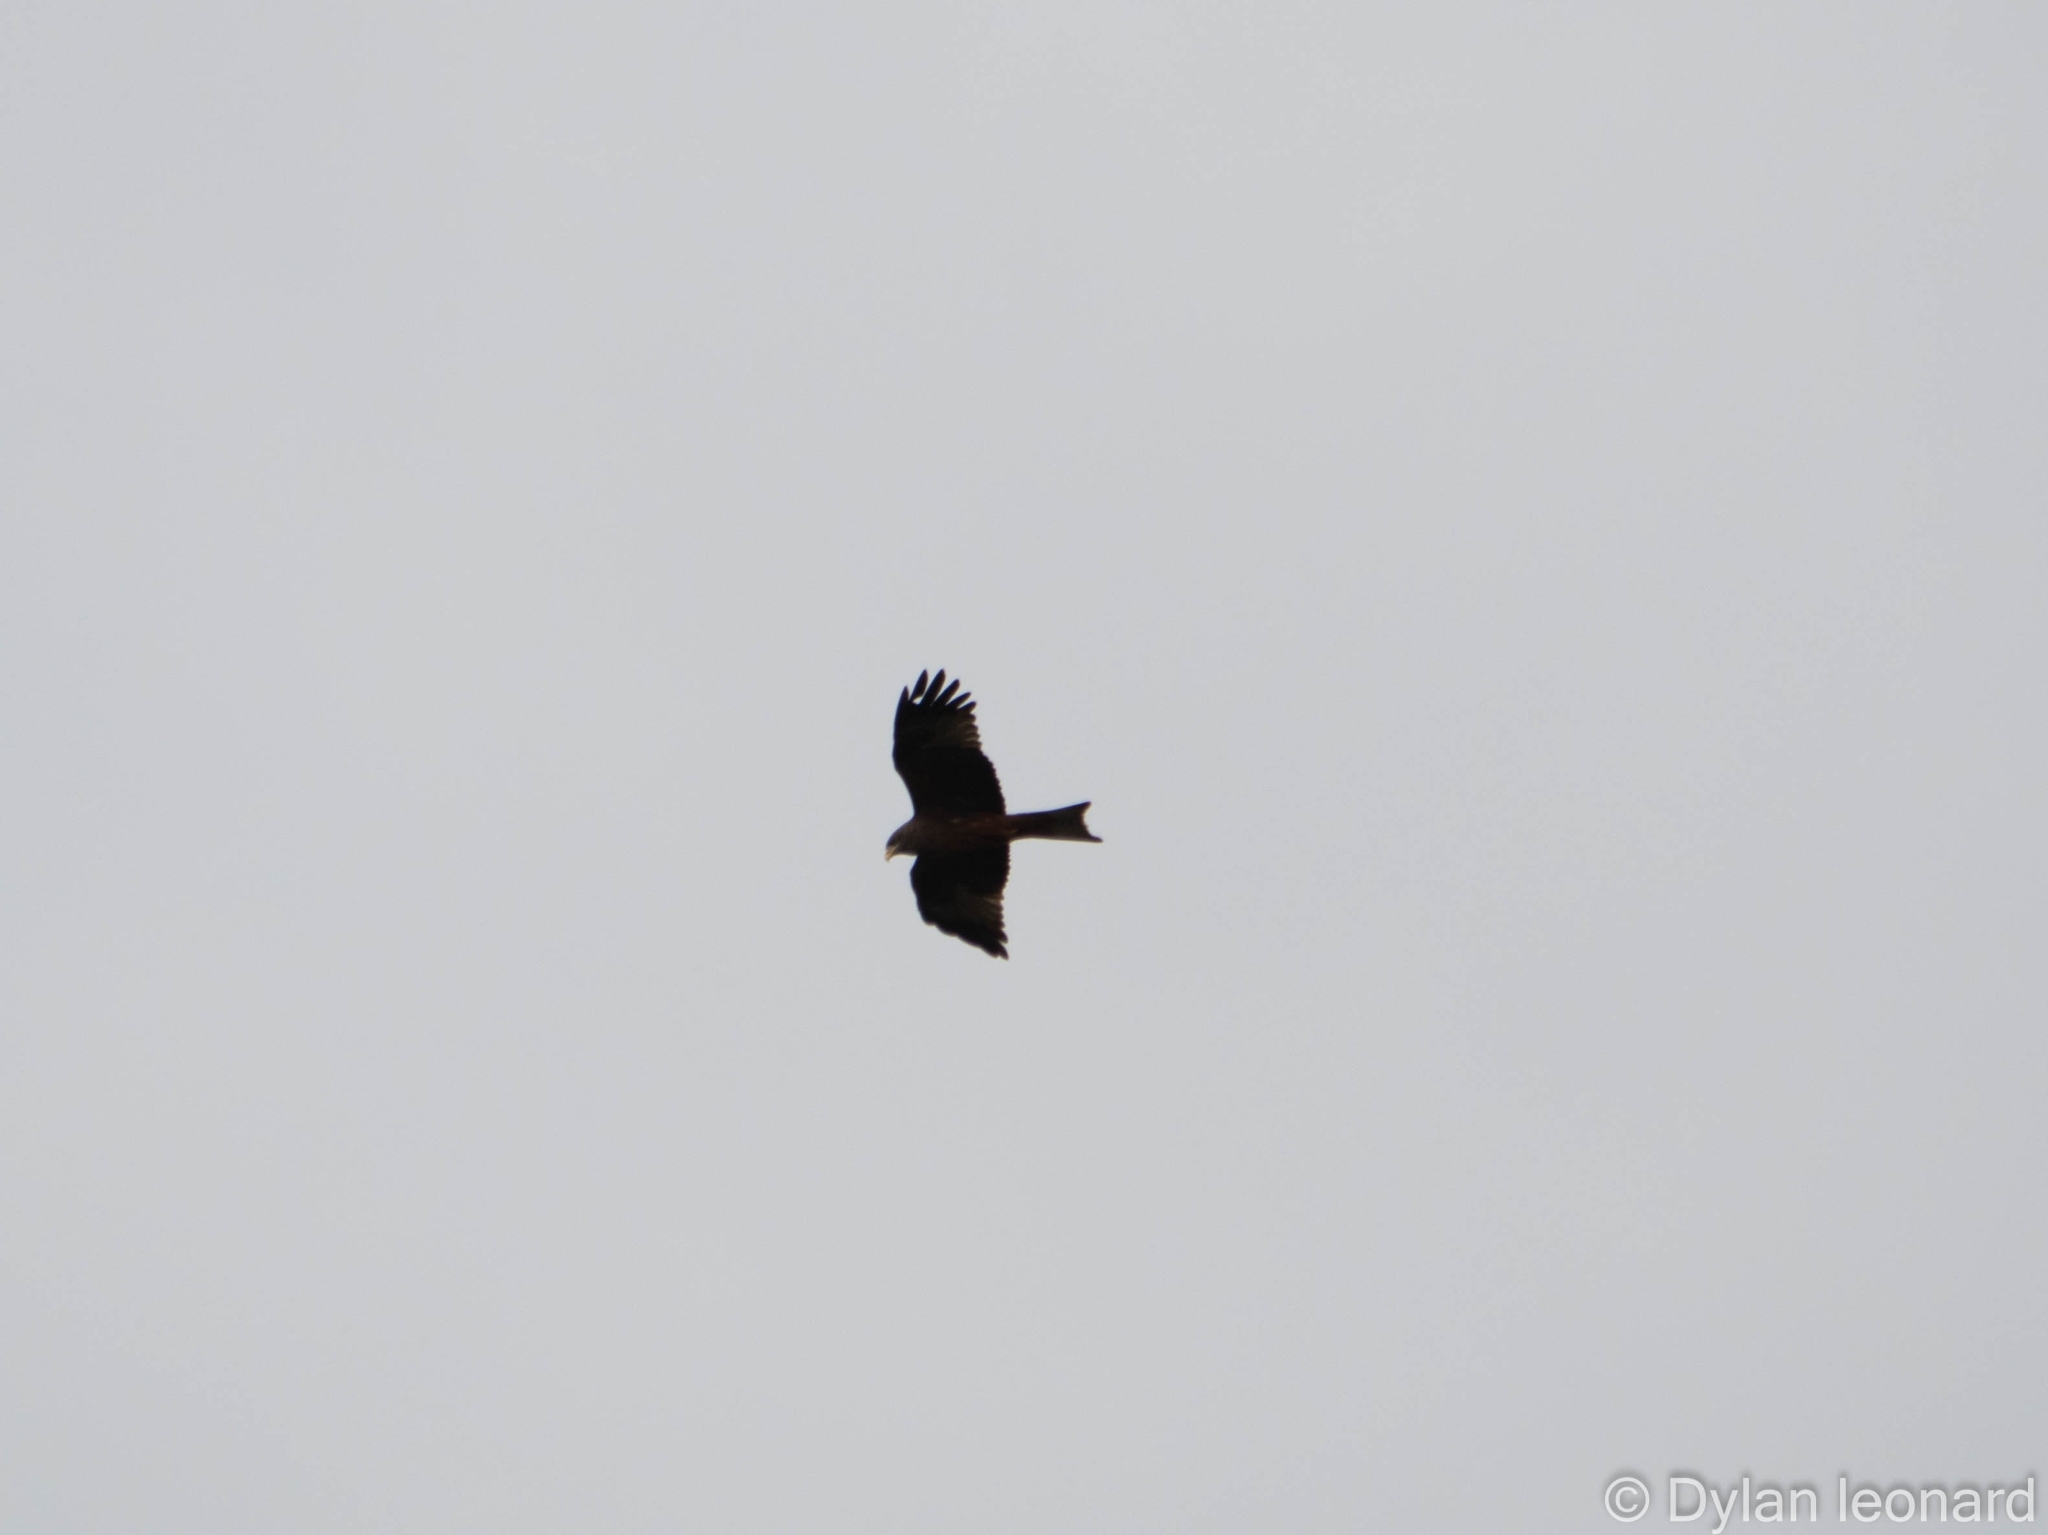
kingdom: Animalia
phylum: Chordata
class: Aves
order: Accipitriformes
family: Accipitridae
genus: Milvus
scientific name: Milvus migrans
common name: Black kite
